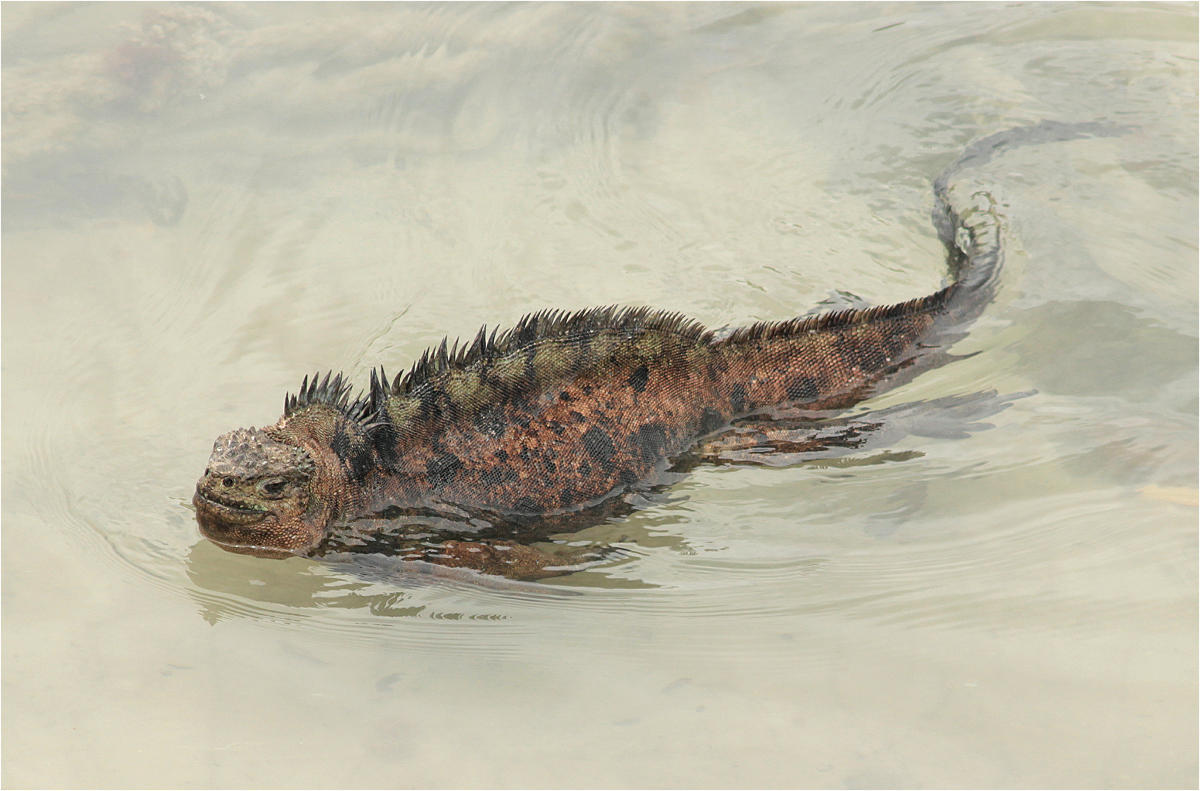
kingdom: Animalia
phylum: Chordata
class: Squamata
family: Iguanidae
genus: Amblyrhynchus
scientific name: Amblyrhynchus cristatus
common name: Marine iguana
